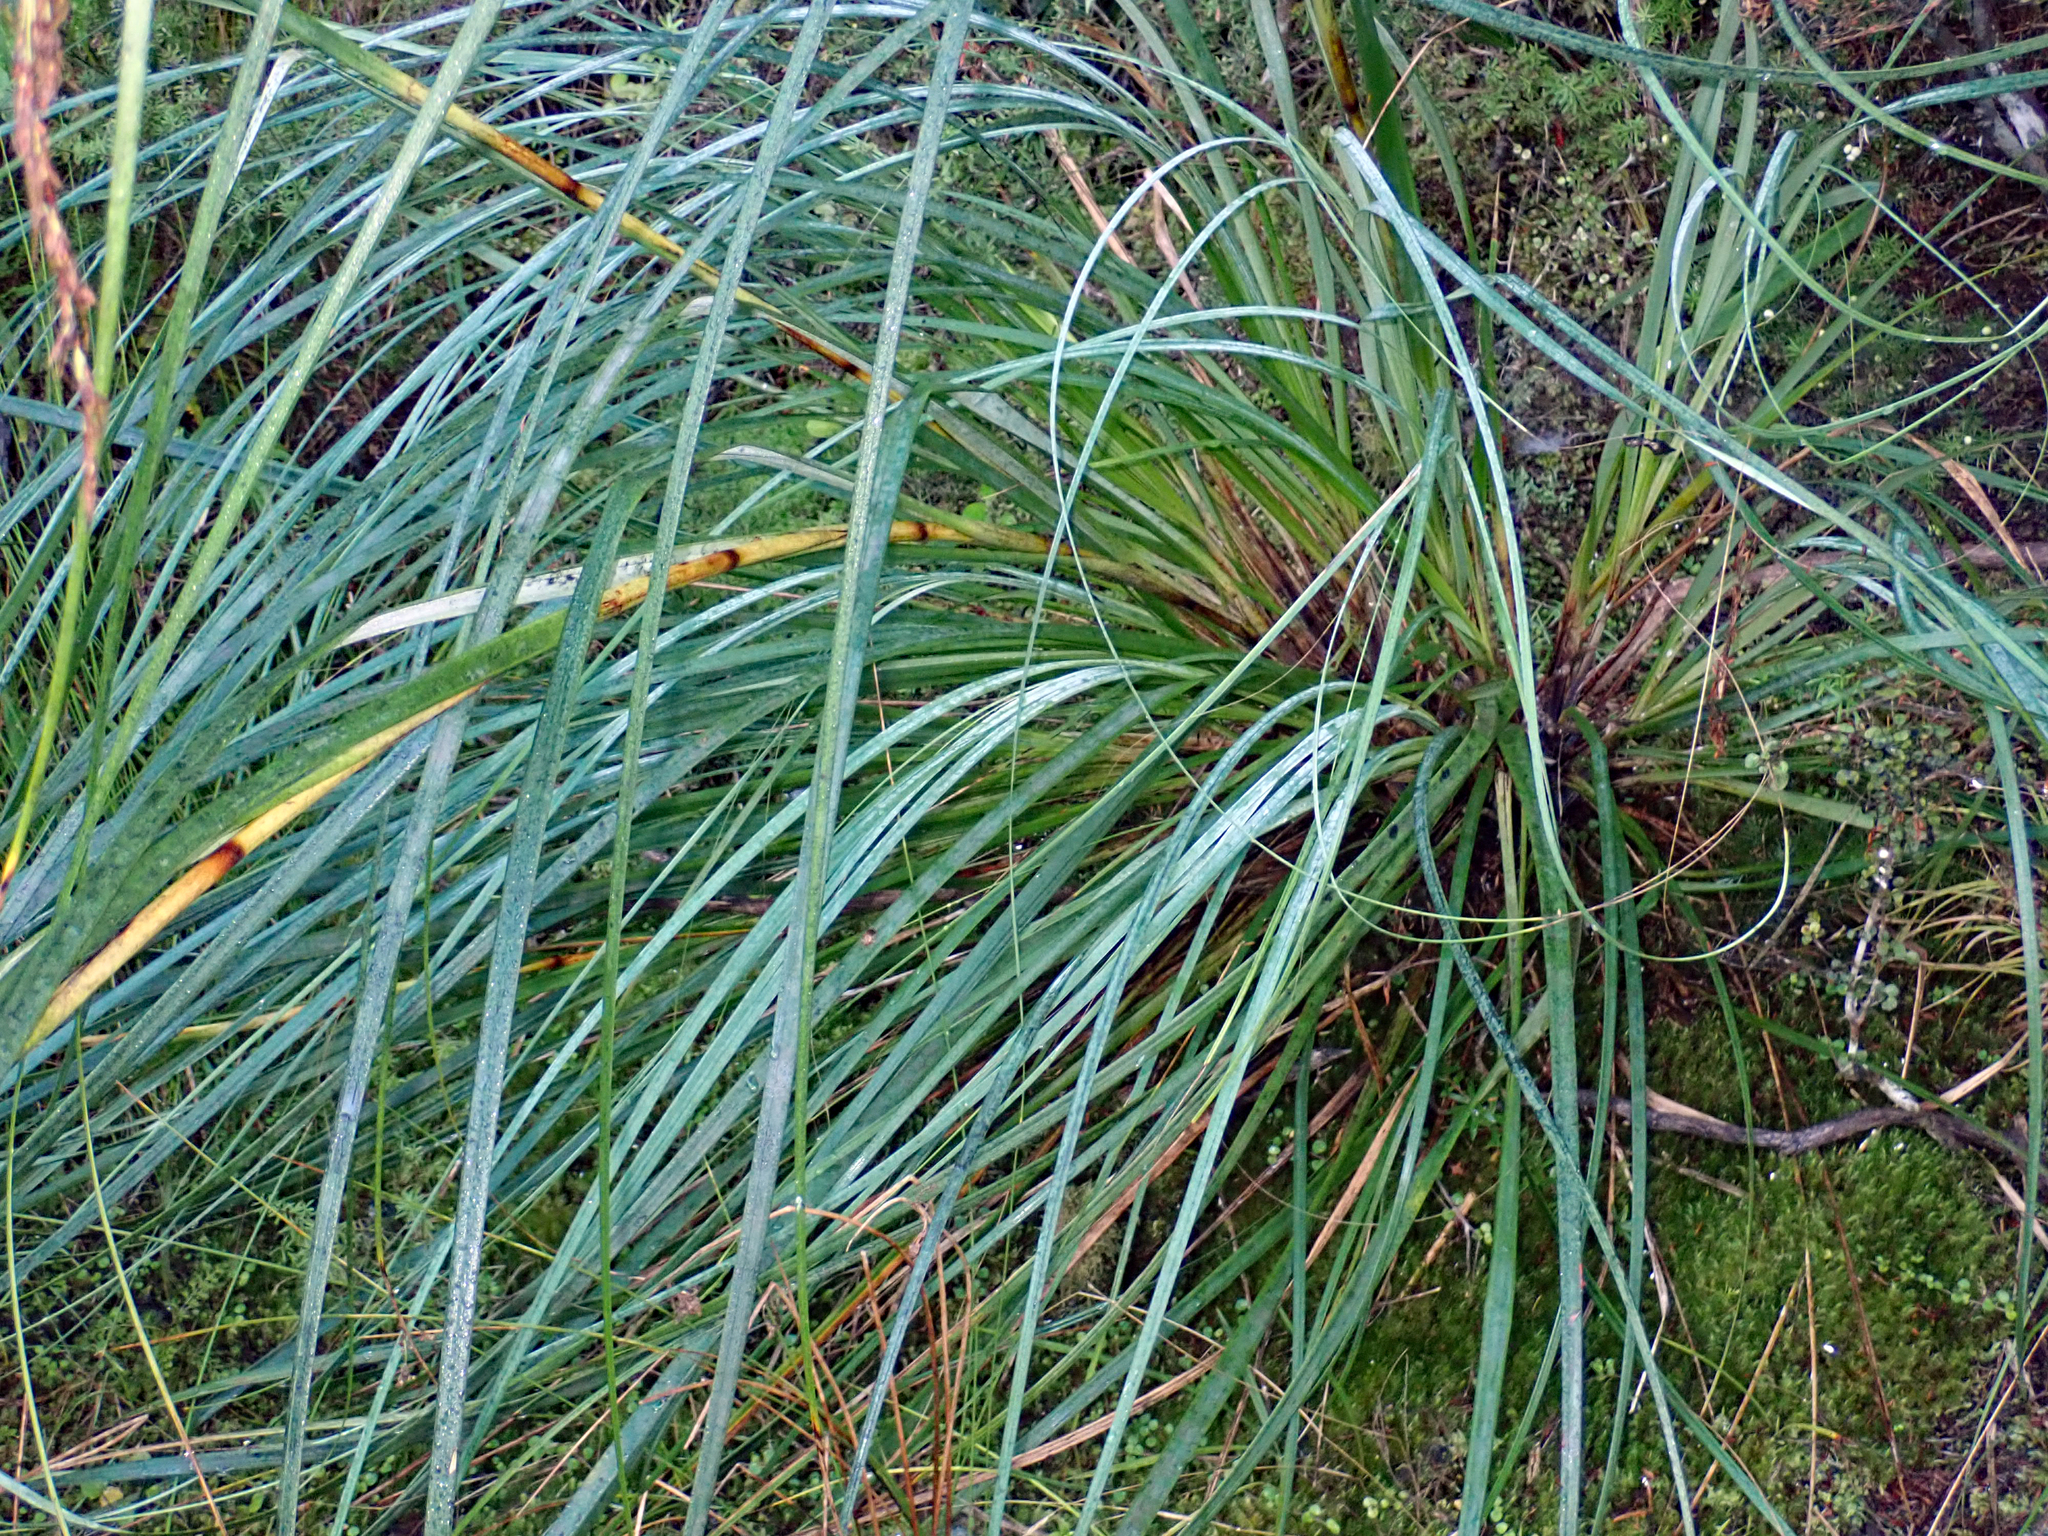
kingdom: Plantae
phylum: Tracheophyta
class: Liliopsida
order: Poales
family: Cyperaceae
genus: Gahnia
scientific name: Gahnia setifolia
